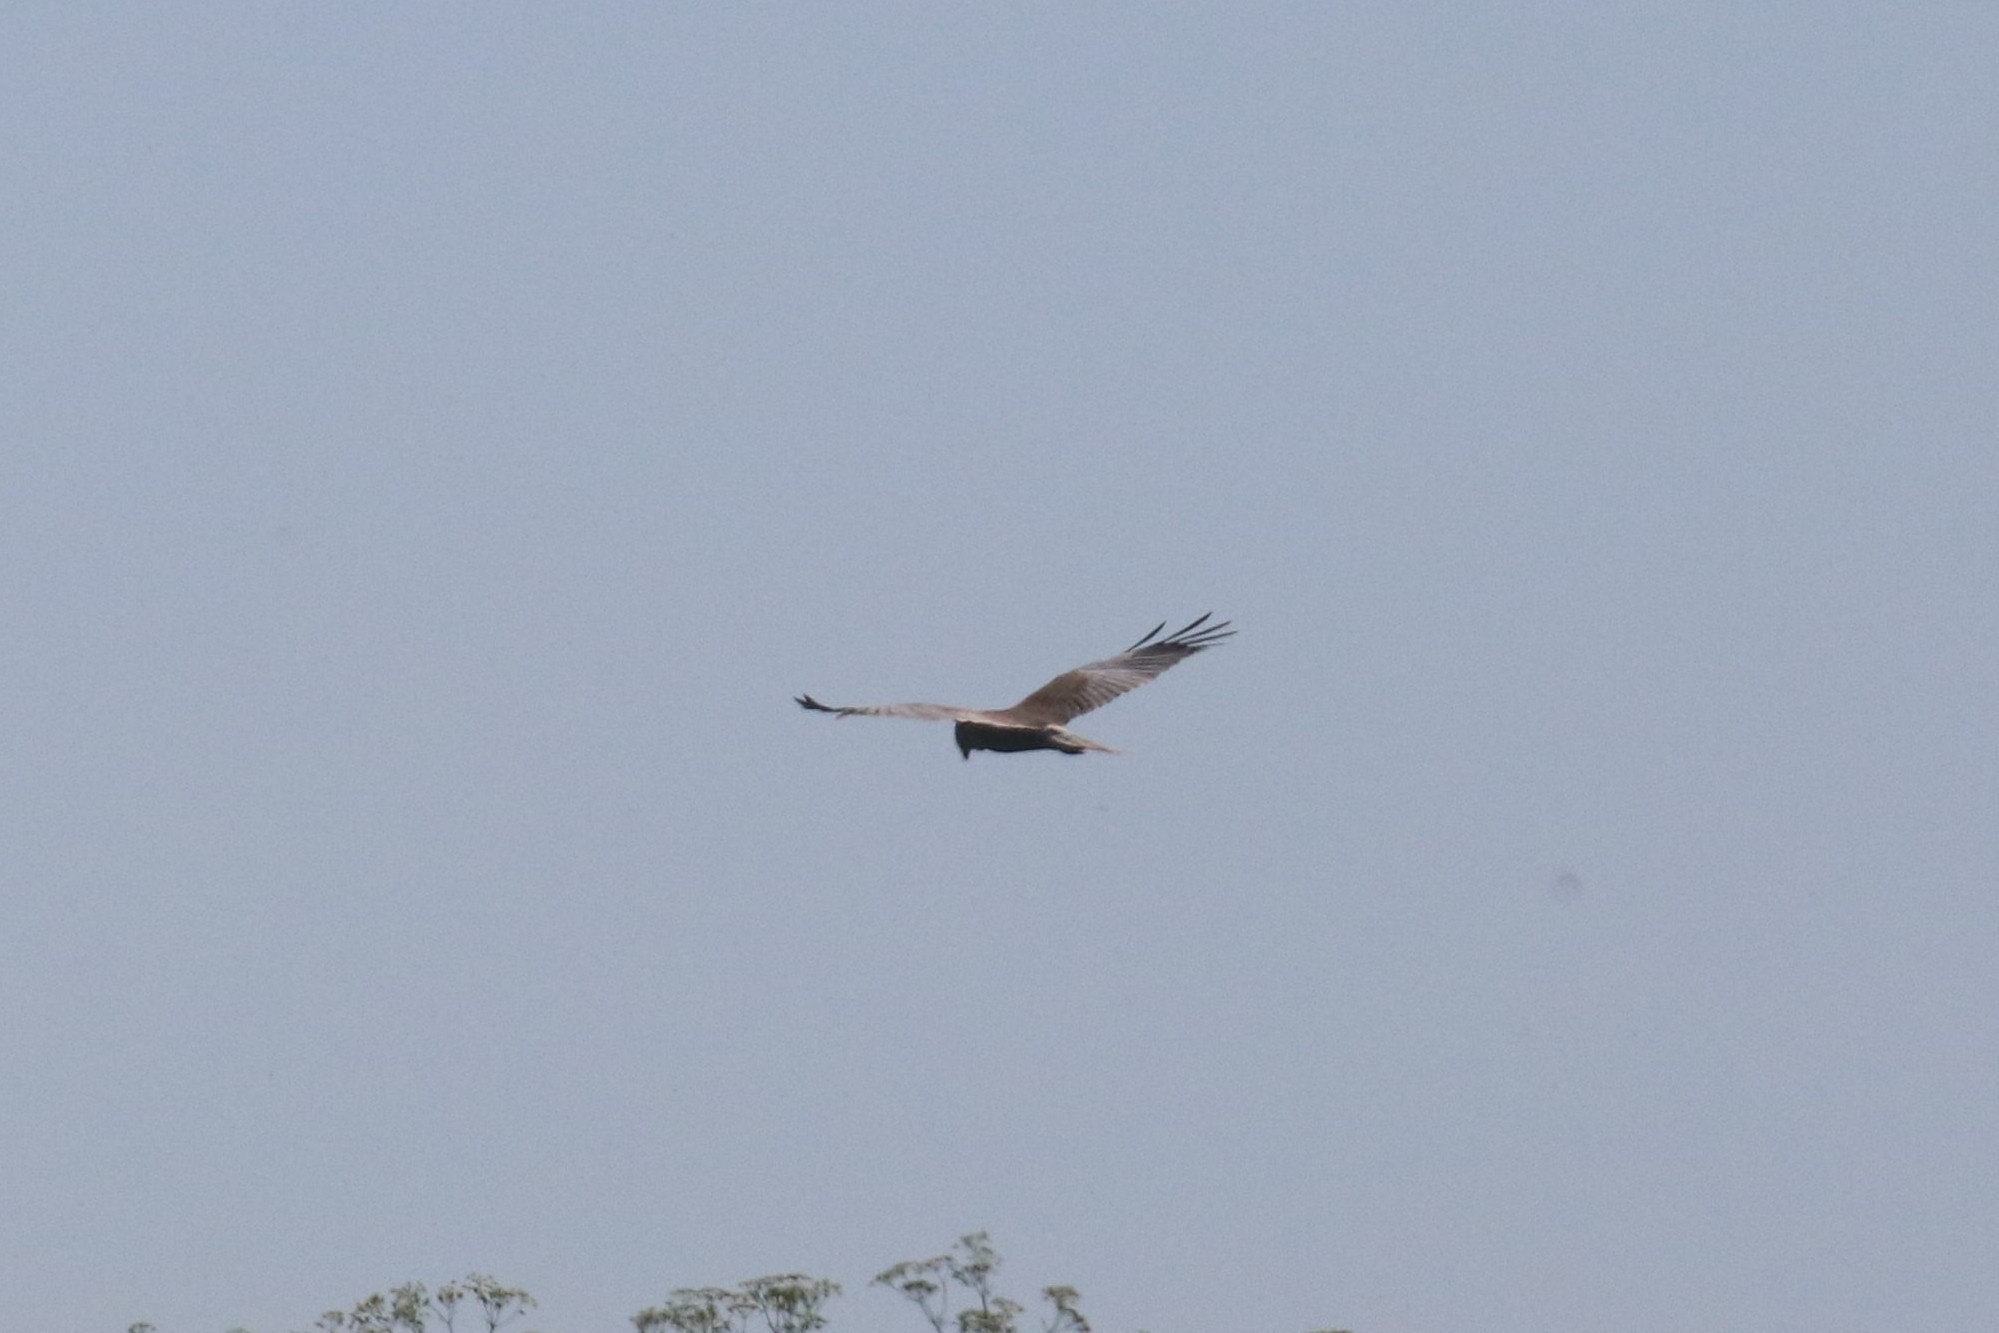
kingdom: Animalia
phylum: Chordata
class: Aves
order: Accipitriformes
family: Accipitridae
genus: Circus
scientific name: Circus aeruginosus
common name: Western marsh harrier
